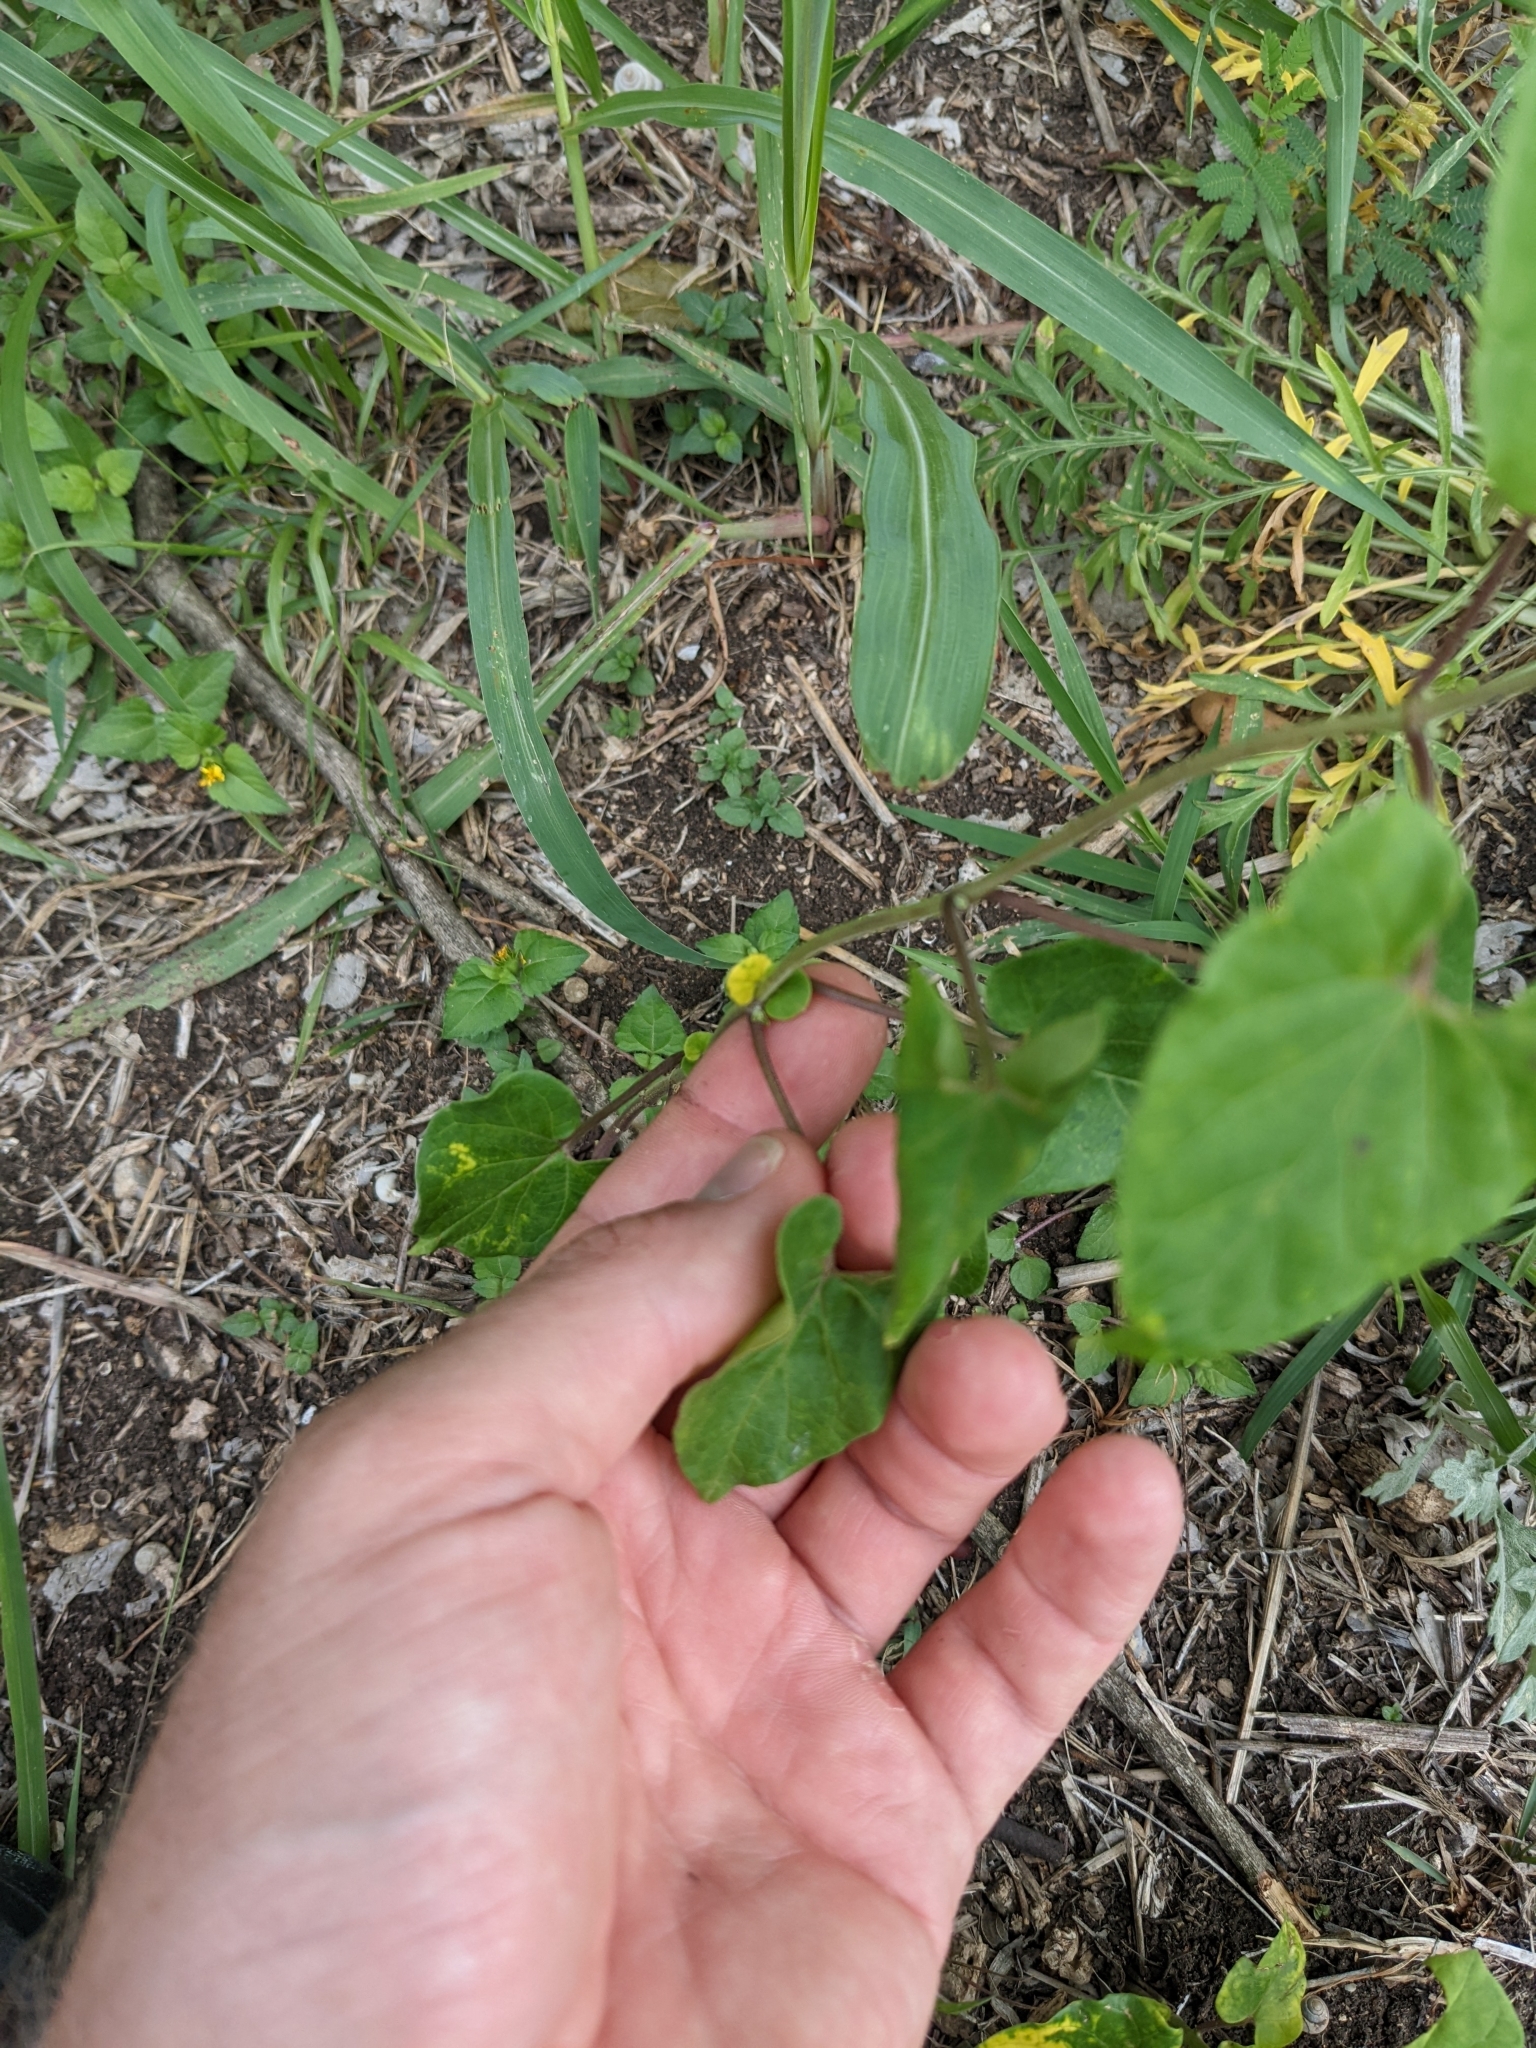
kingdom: Plantae
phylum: Tracheophyta
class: Magnoliopsida
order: Gentianales
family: Apocynaceae
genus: Cynanchum
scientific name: Cynanchum racemosum
